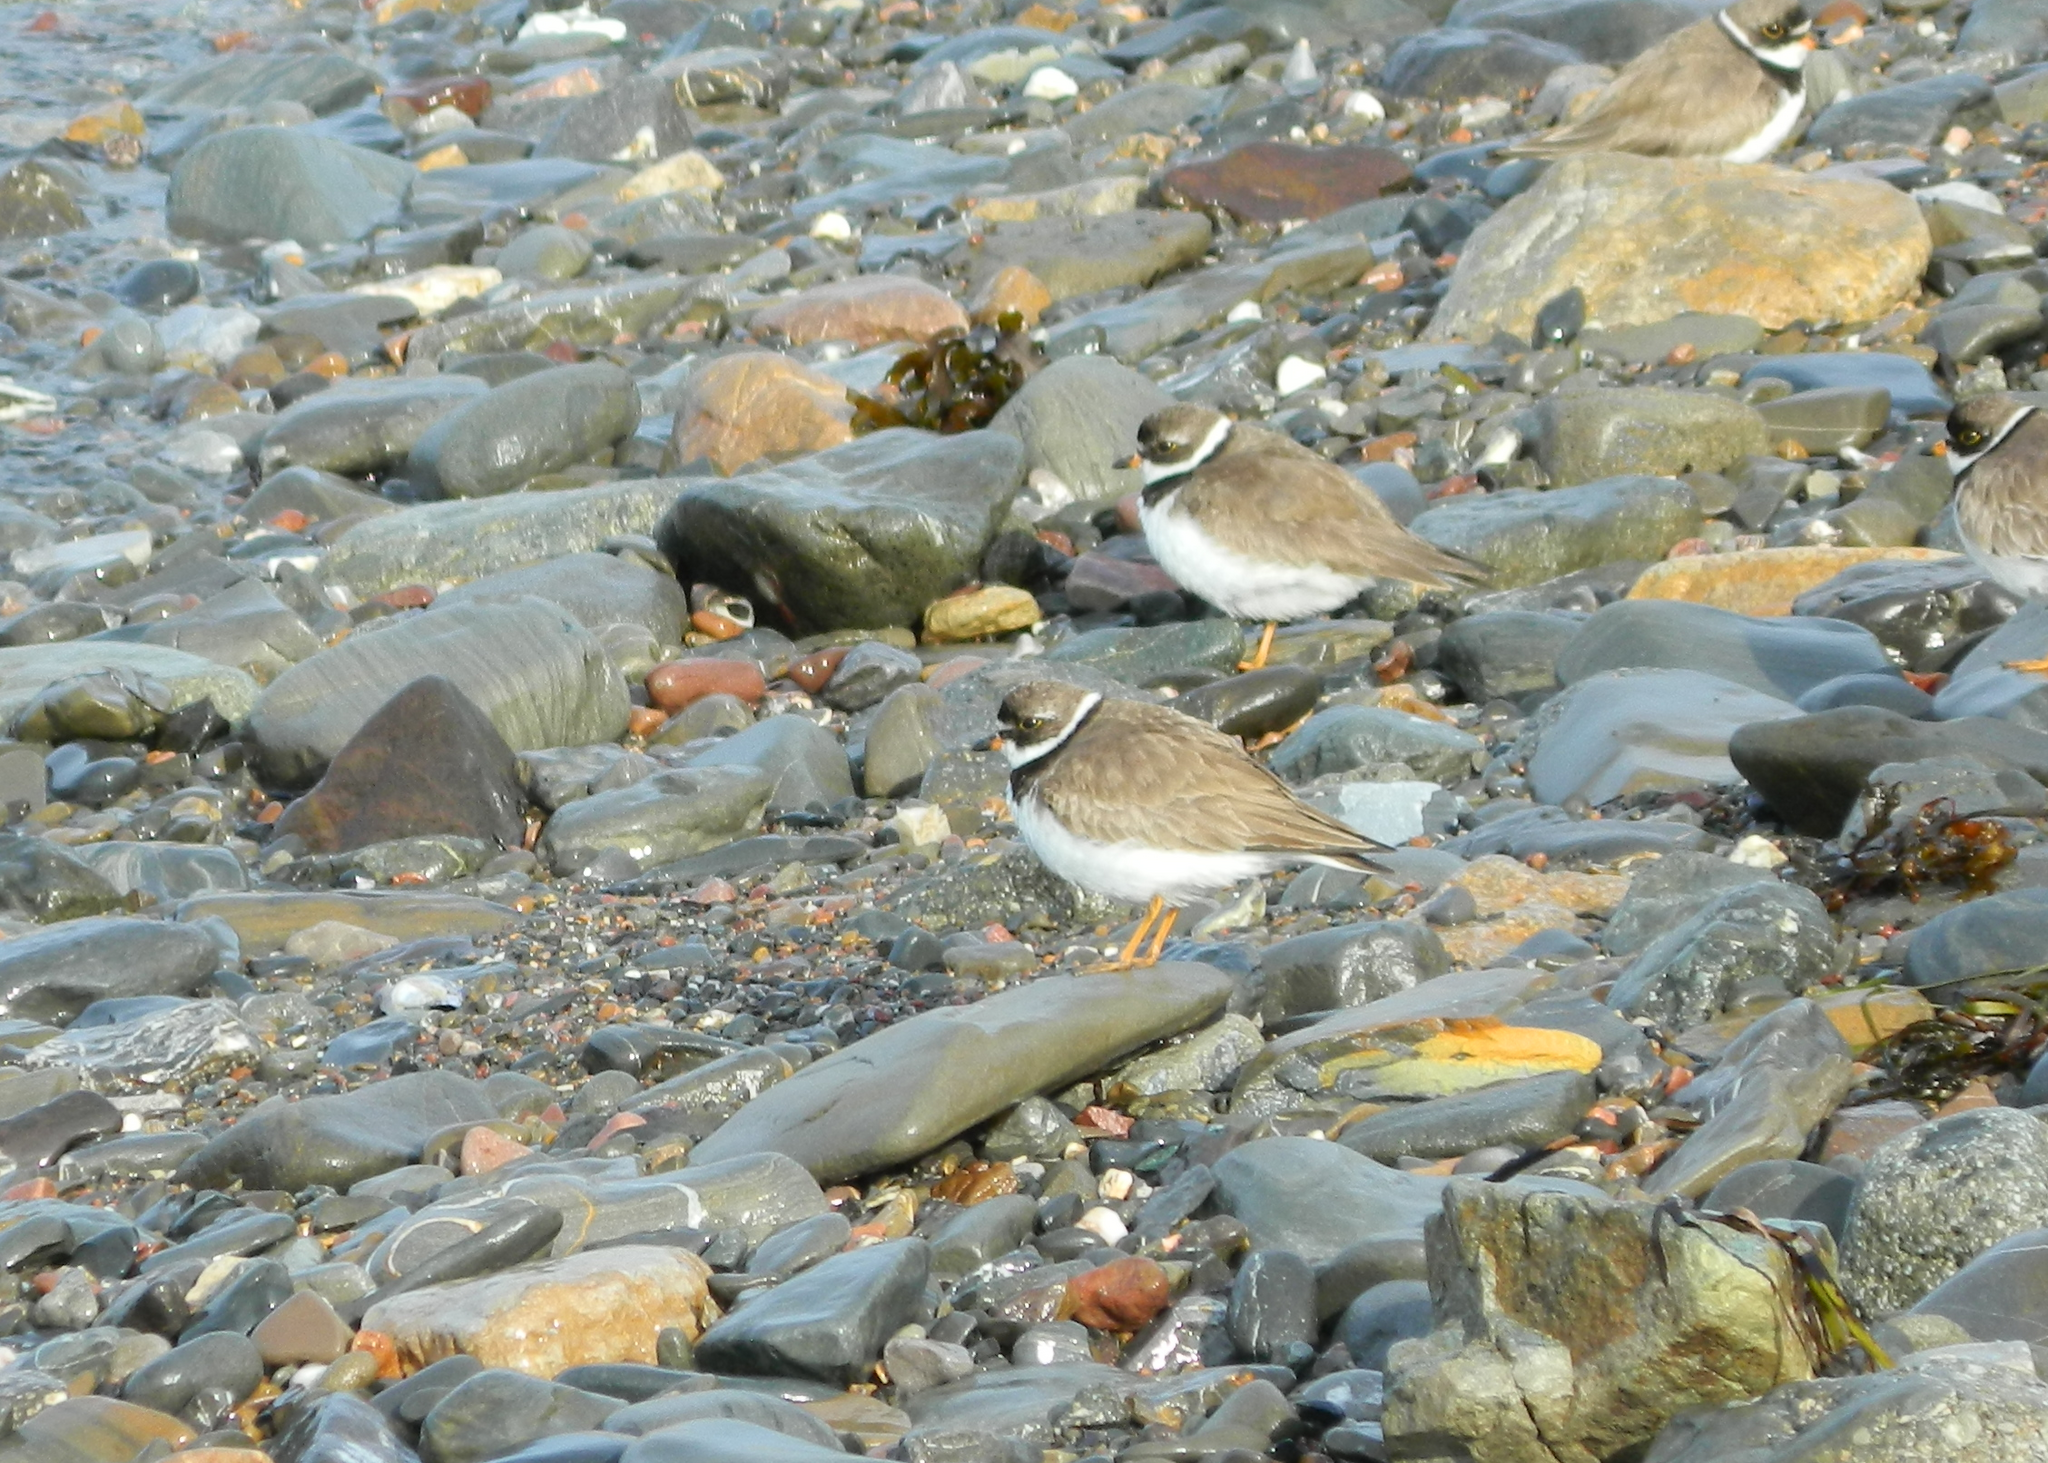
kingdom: Animalia
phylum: Chordata
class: Aves
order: Charadriiformes
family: Charadriidae
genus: Charadrius
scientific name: Charadrius semipalmatus
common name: Semipalmated plover
